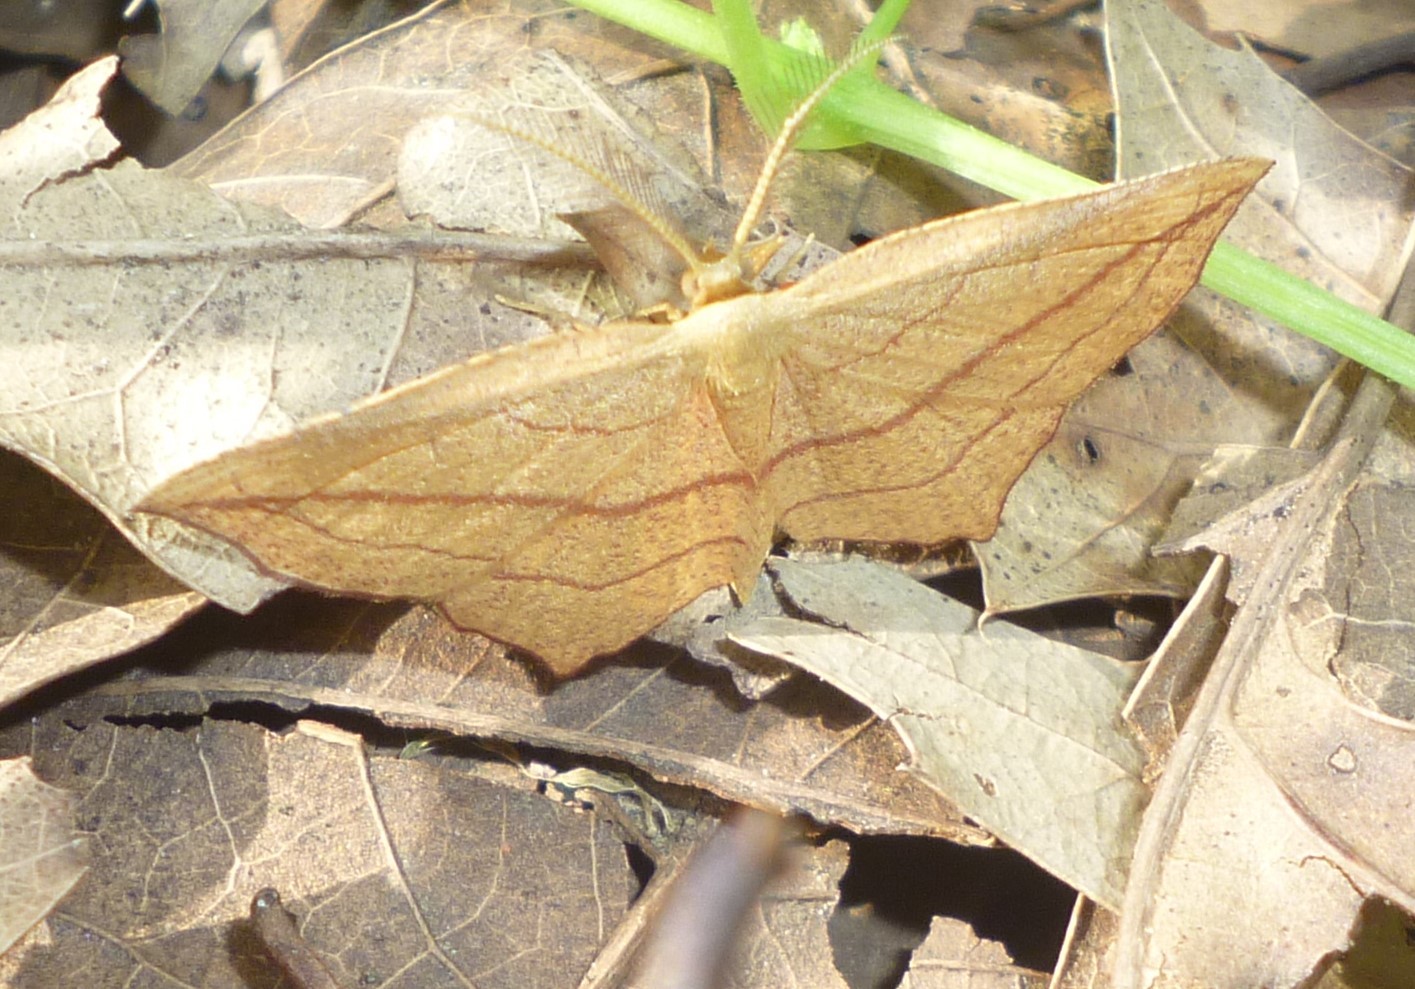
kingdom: Animalia
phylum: Arthropoda
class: Insecta
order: Lepidoptera
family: Geometridae
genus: Timandra
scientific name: Timandra amaturaria
